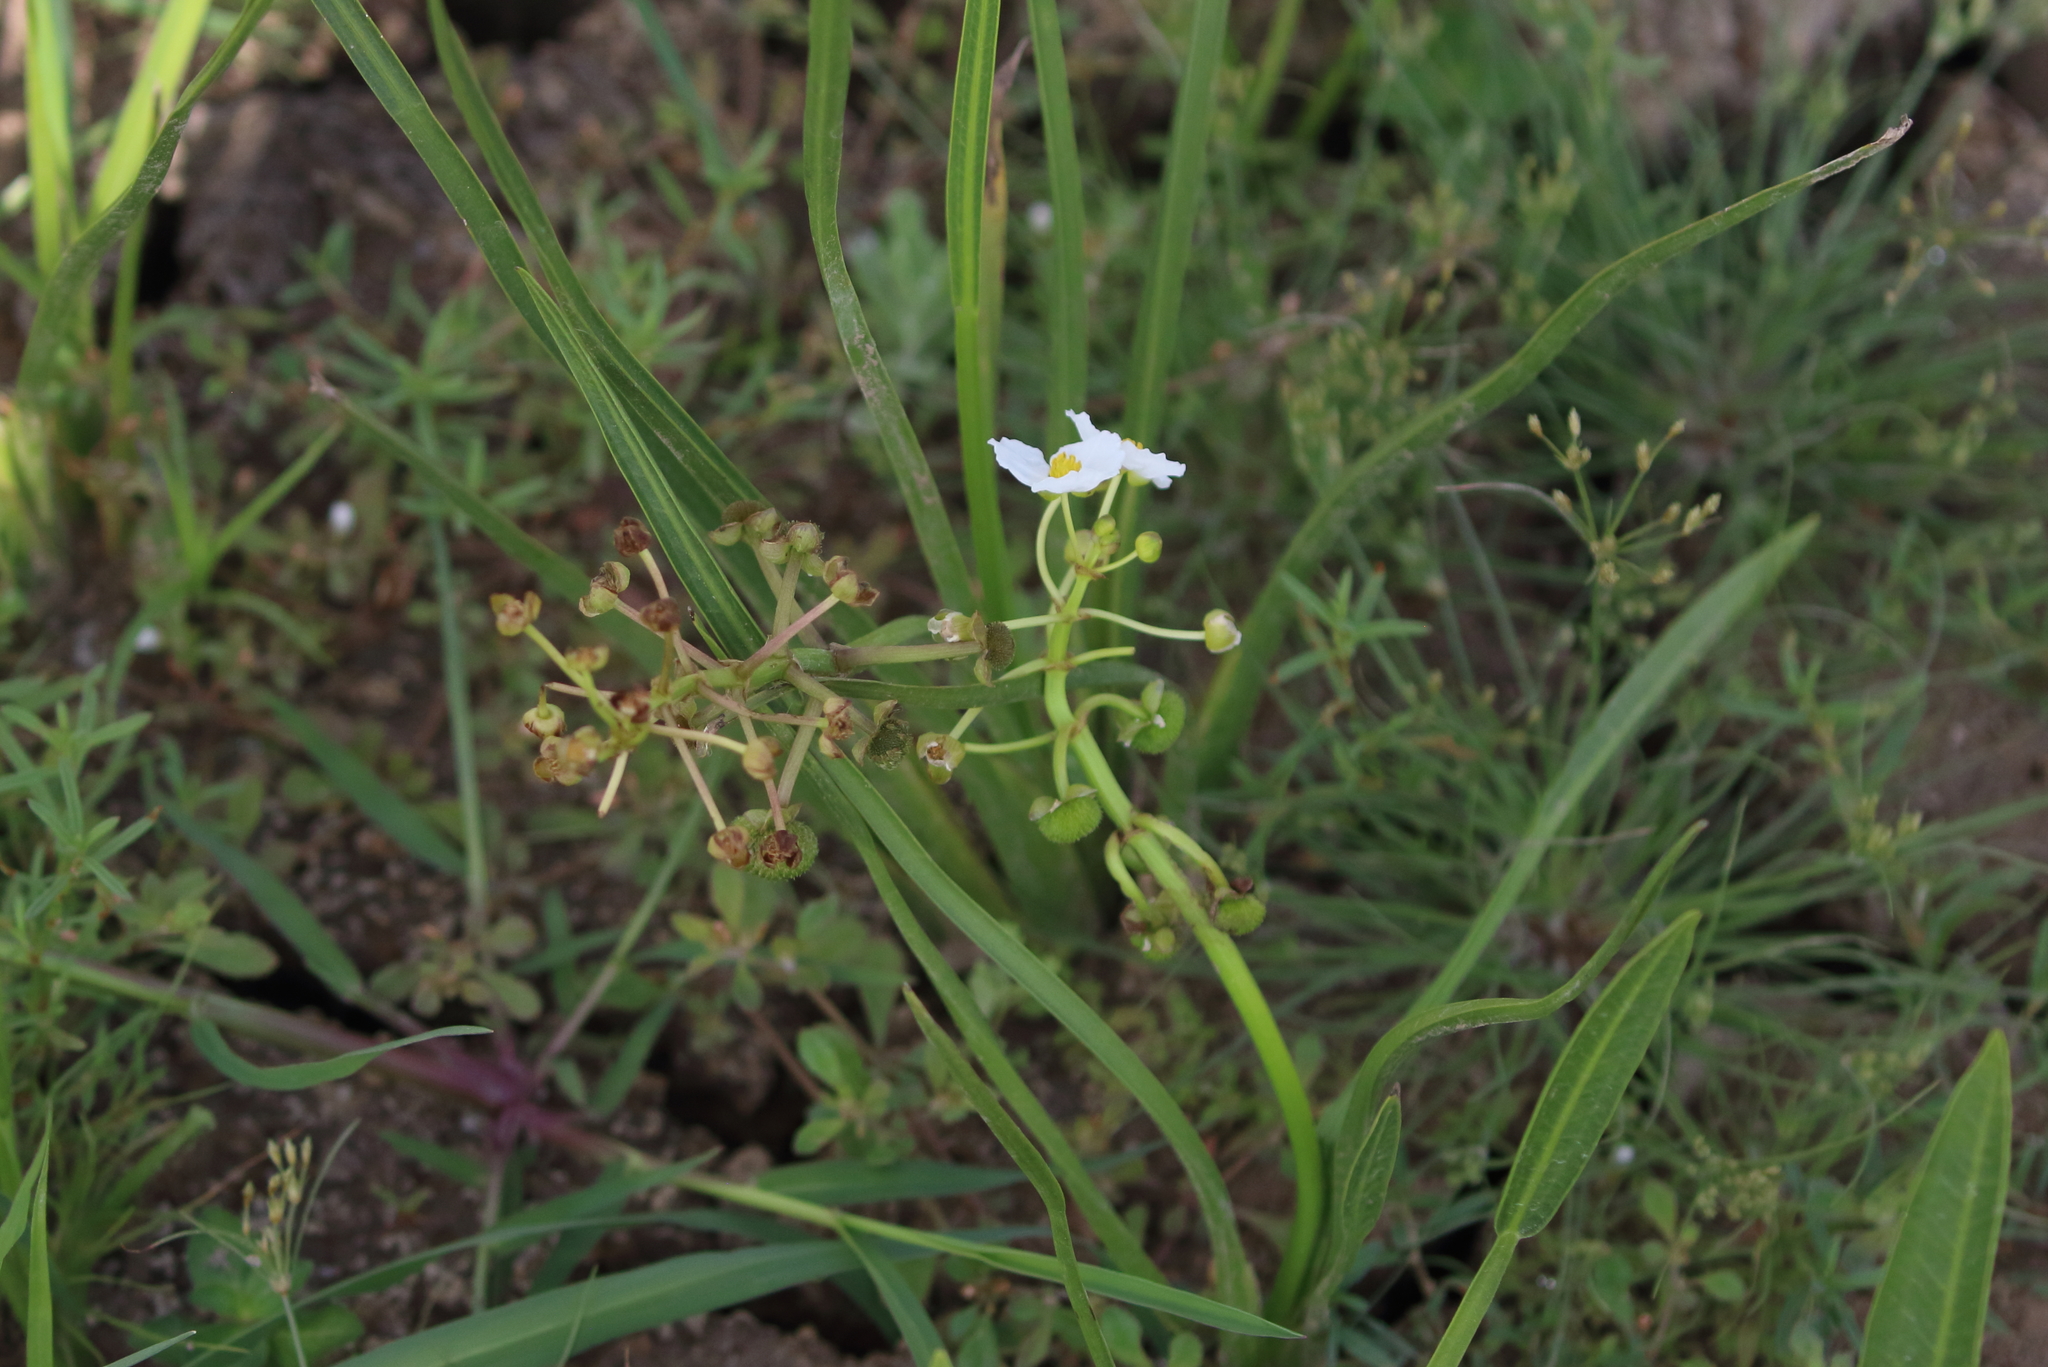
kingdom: Plantae
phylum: Tracheophyta
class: Liliopsida
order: Alismatales
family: Alismataceae
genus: Sagittaria
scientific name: Sagittaria platyphylla
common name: Broad-leaf arrowhead
